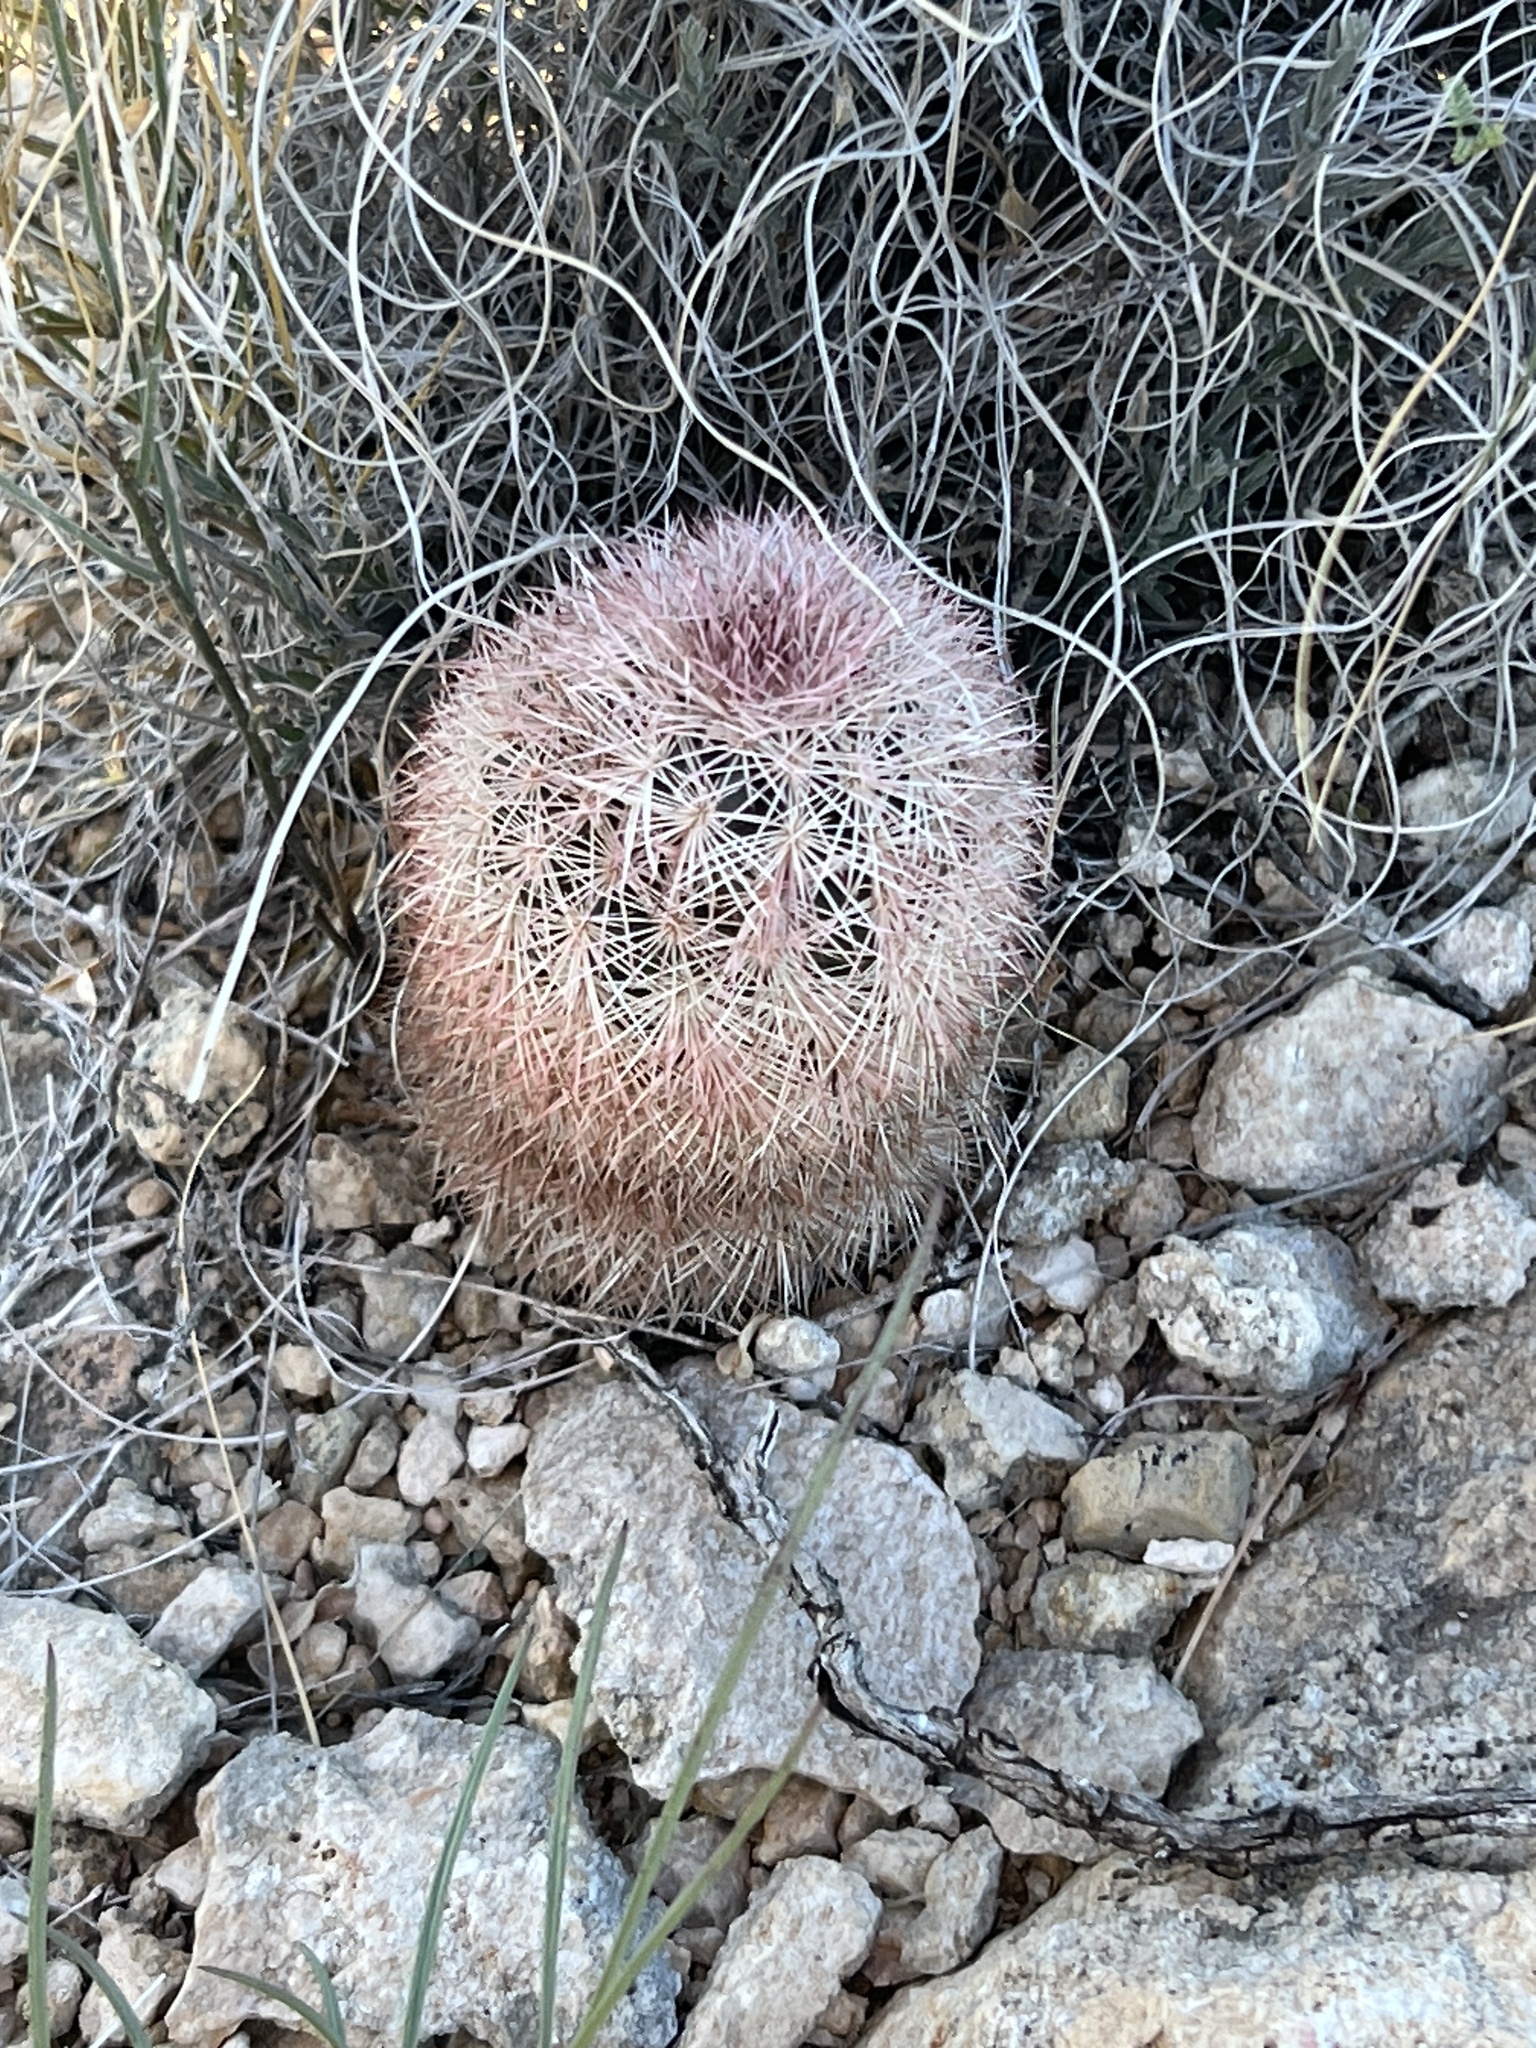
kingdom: Plantae
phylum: Tracheophyta
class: Magnoliopsida
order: Caryophyllales
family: Cactaceae
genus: Echinocereus
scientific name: Echinocereus dasyacanthus
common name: Spiny hedgehog cactus
